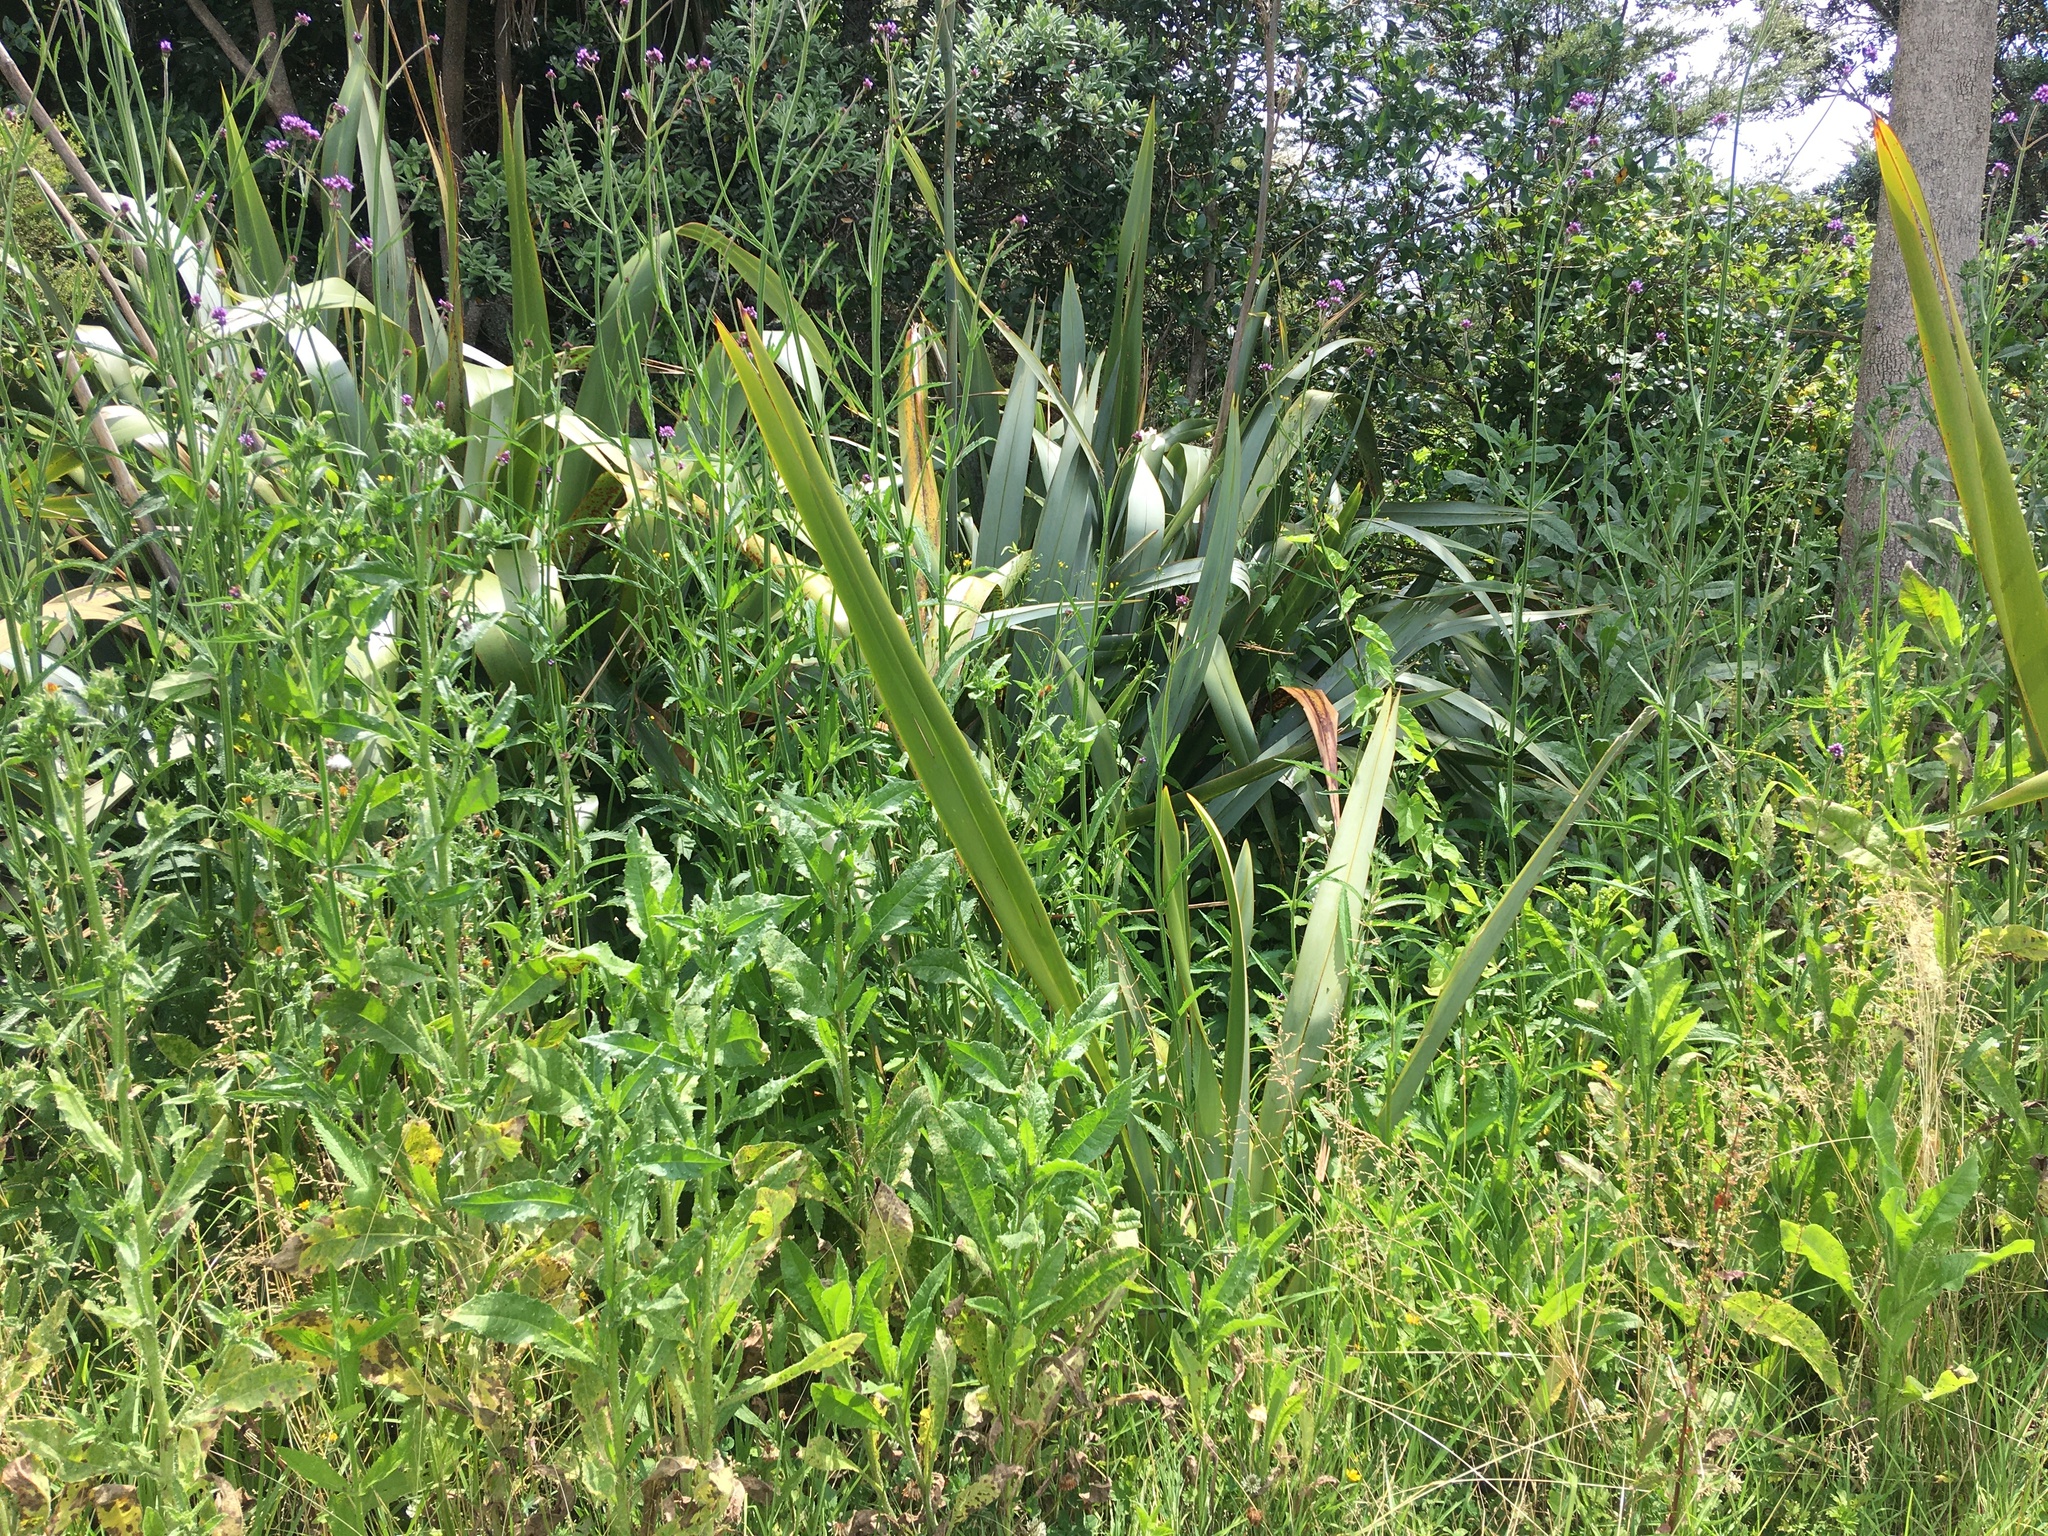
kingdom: Plantae
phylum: Tracheophyta
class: Magnoliopsida
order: Asterales
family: Asteraceae
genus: Helminthotheca
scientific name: Helminthotheca echioides
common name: Ox-tongue
